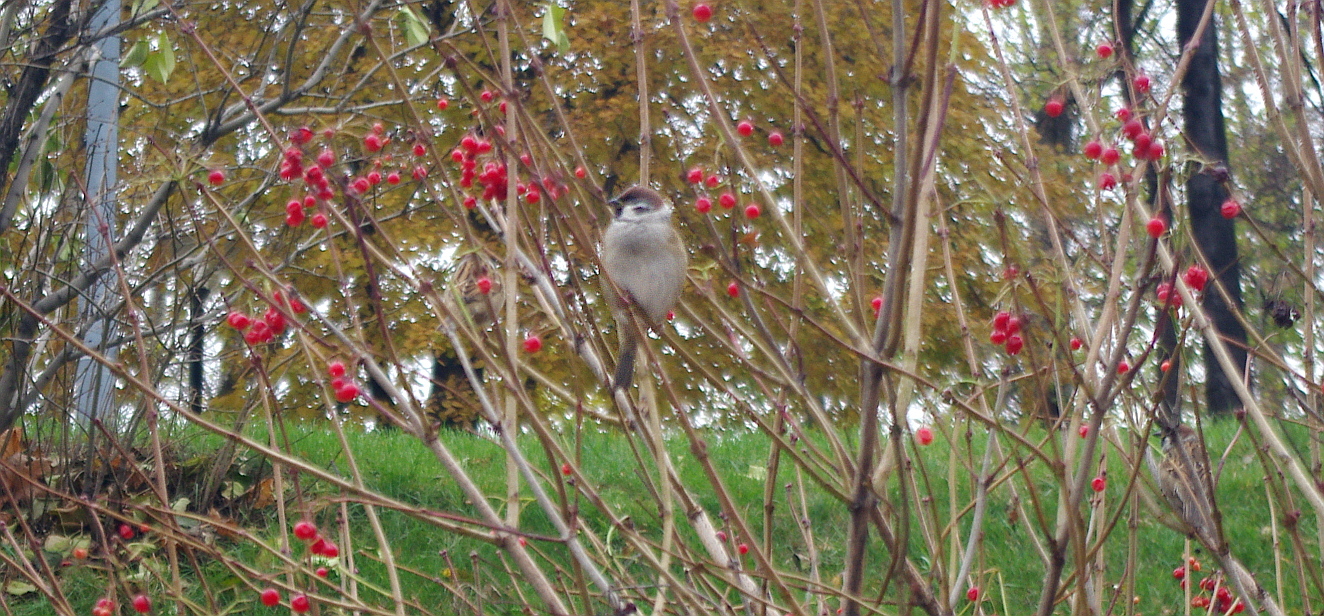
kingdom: Animalia
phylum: Chordata
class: Aves
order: Passeriformes
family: Passeridae
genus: Passer
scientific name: Passer montanus
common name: Eurasian tree sparrow
